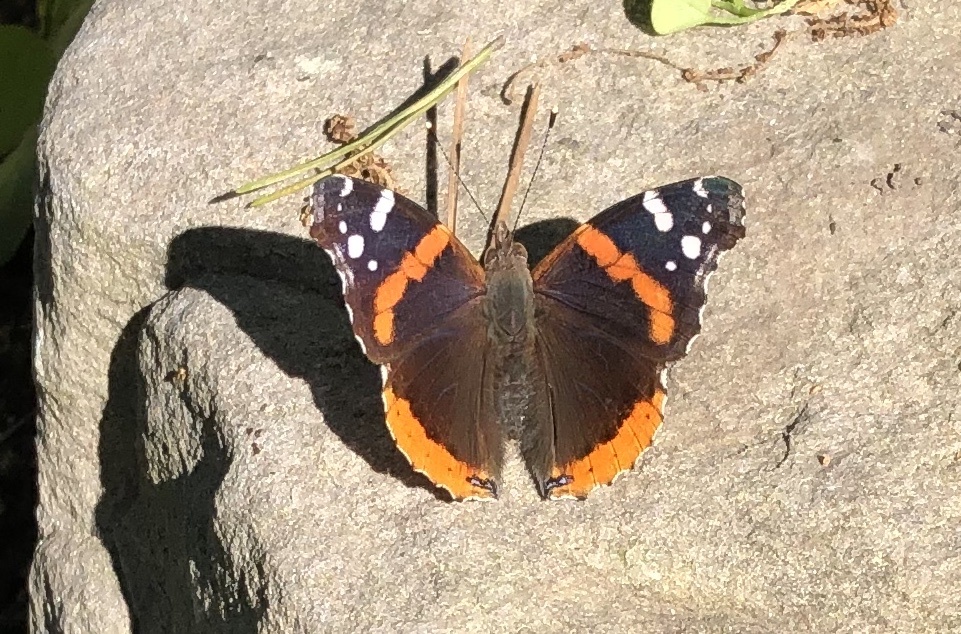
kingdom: Animalia
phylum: Arthropoda
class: Insecta
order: Lepidoptera
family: Nymphalidae
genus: Vanessa
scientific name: Vanessa atalanta
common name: Red admiral
